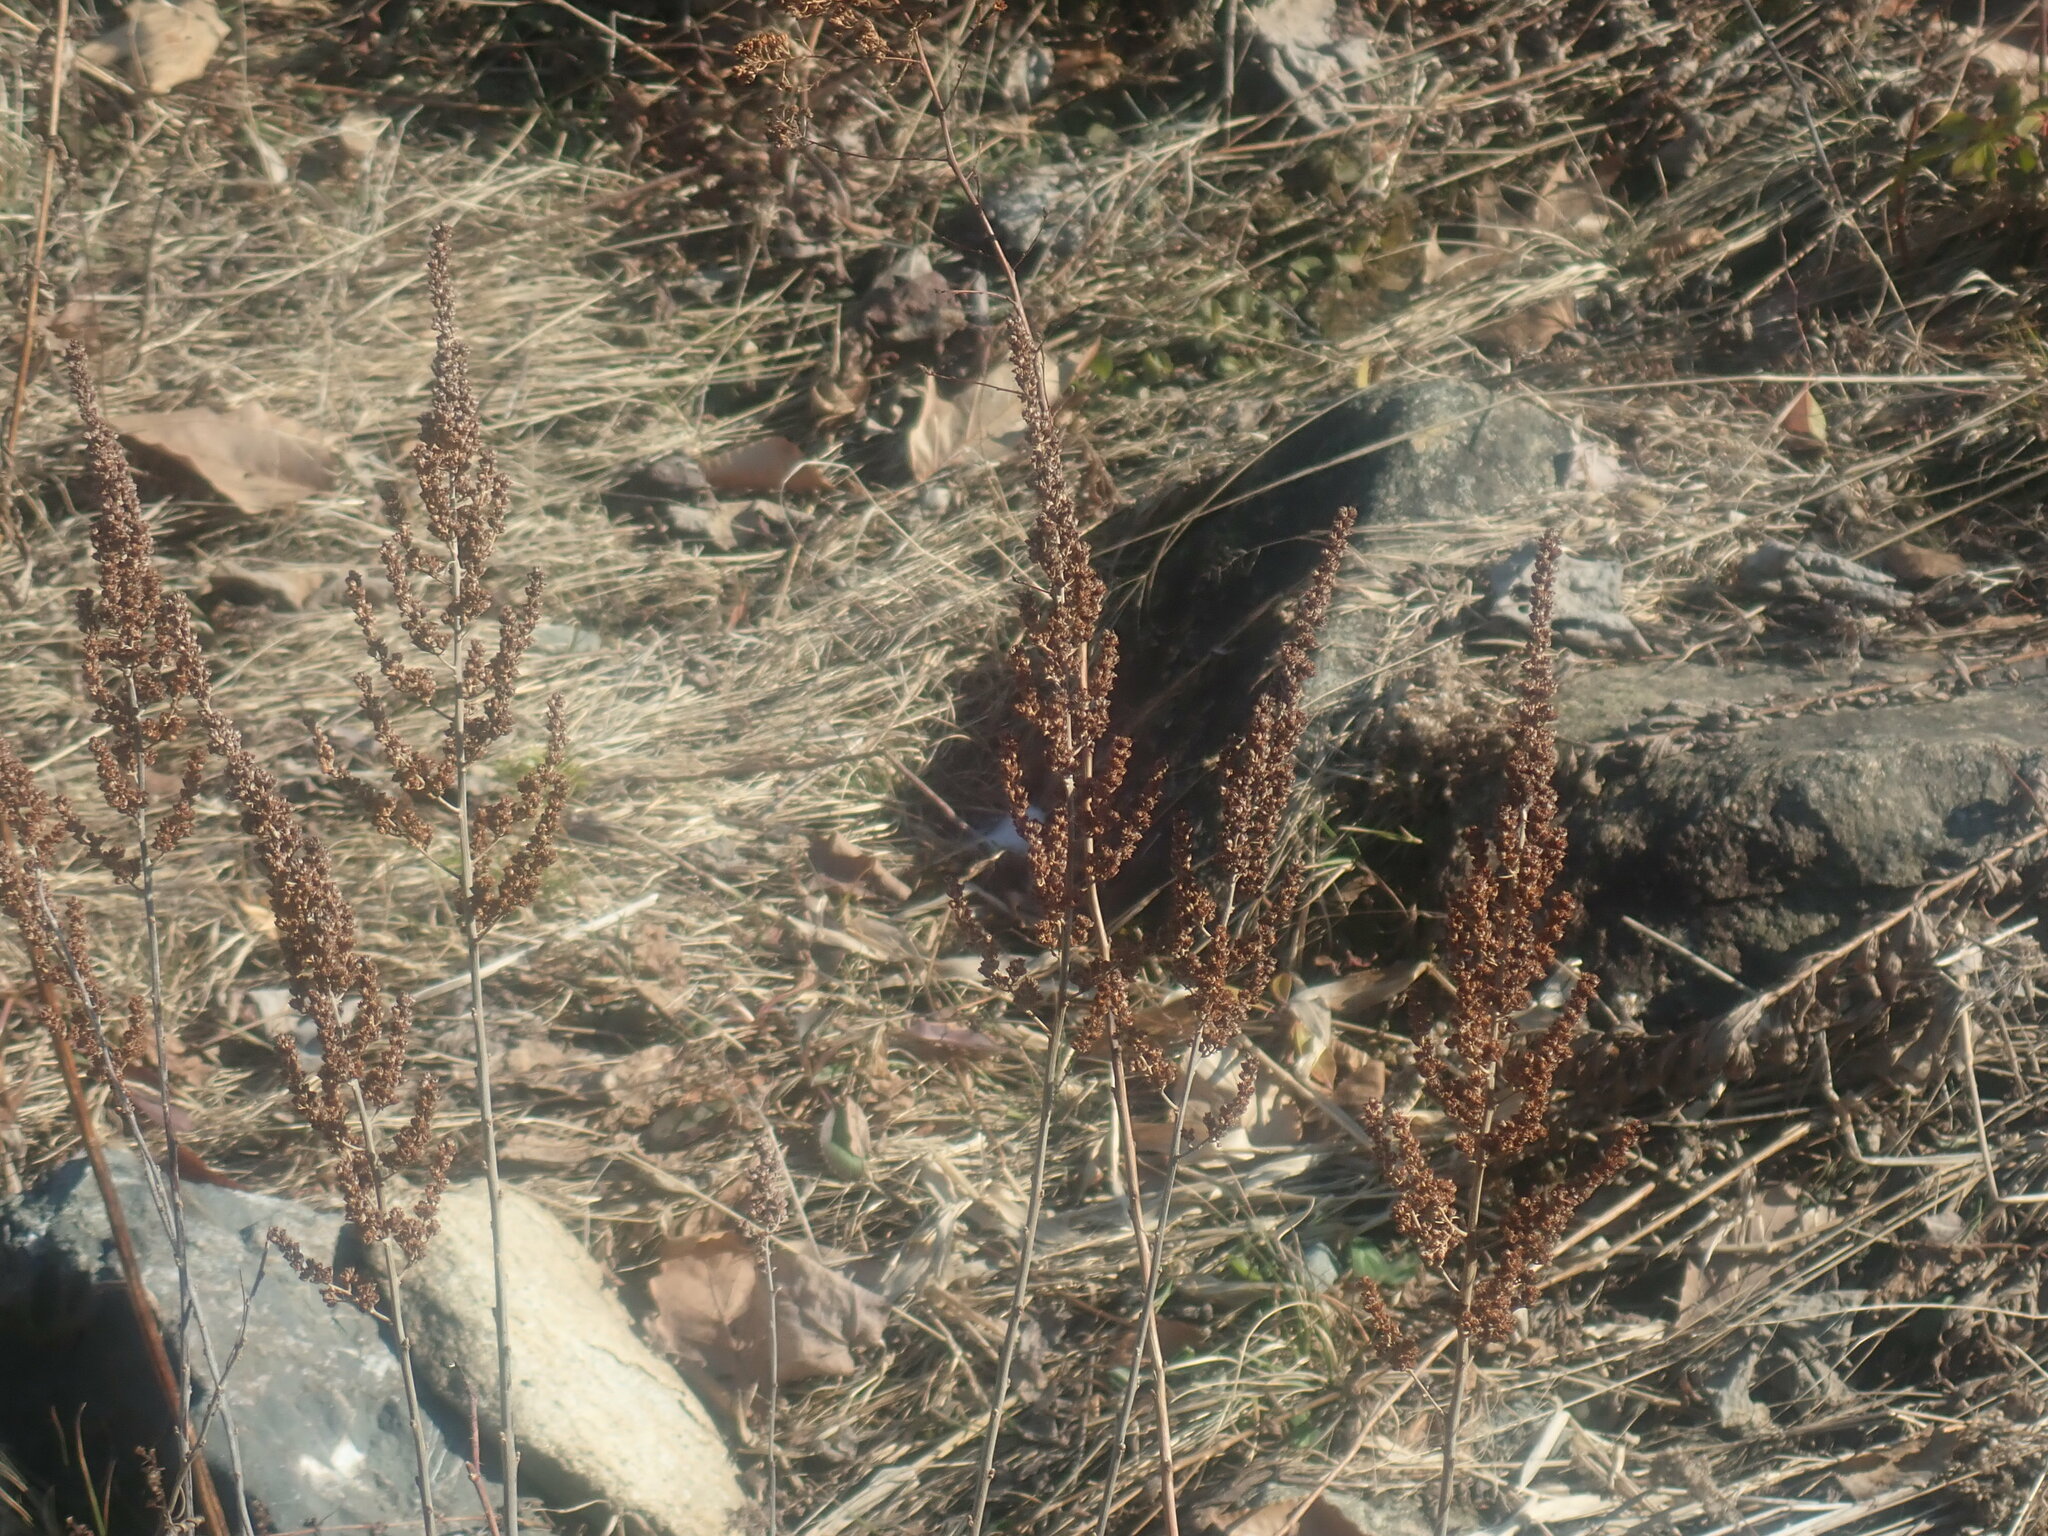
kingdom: Plantae
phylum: Tracheophyta
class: Magnoliopsida
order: Rosales
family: Rosaceae
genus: Spiraea
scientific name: Spiraea tomentosa
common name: Hardhack
